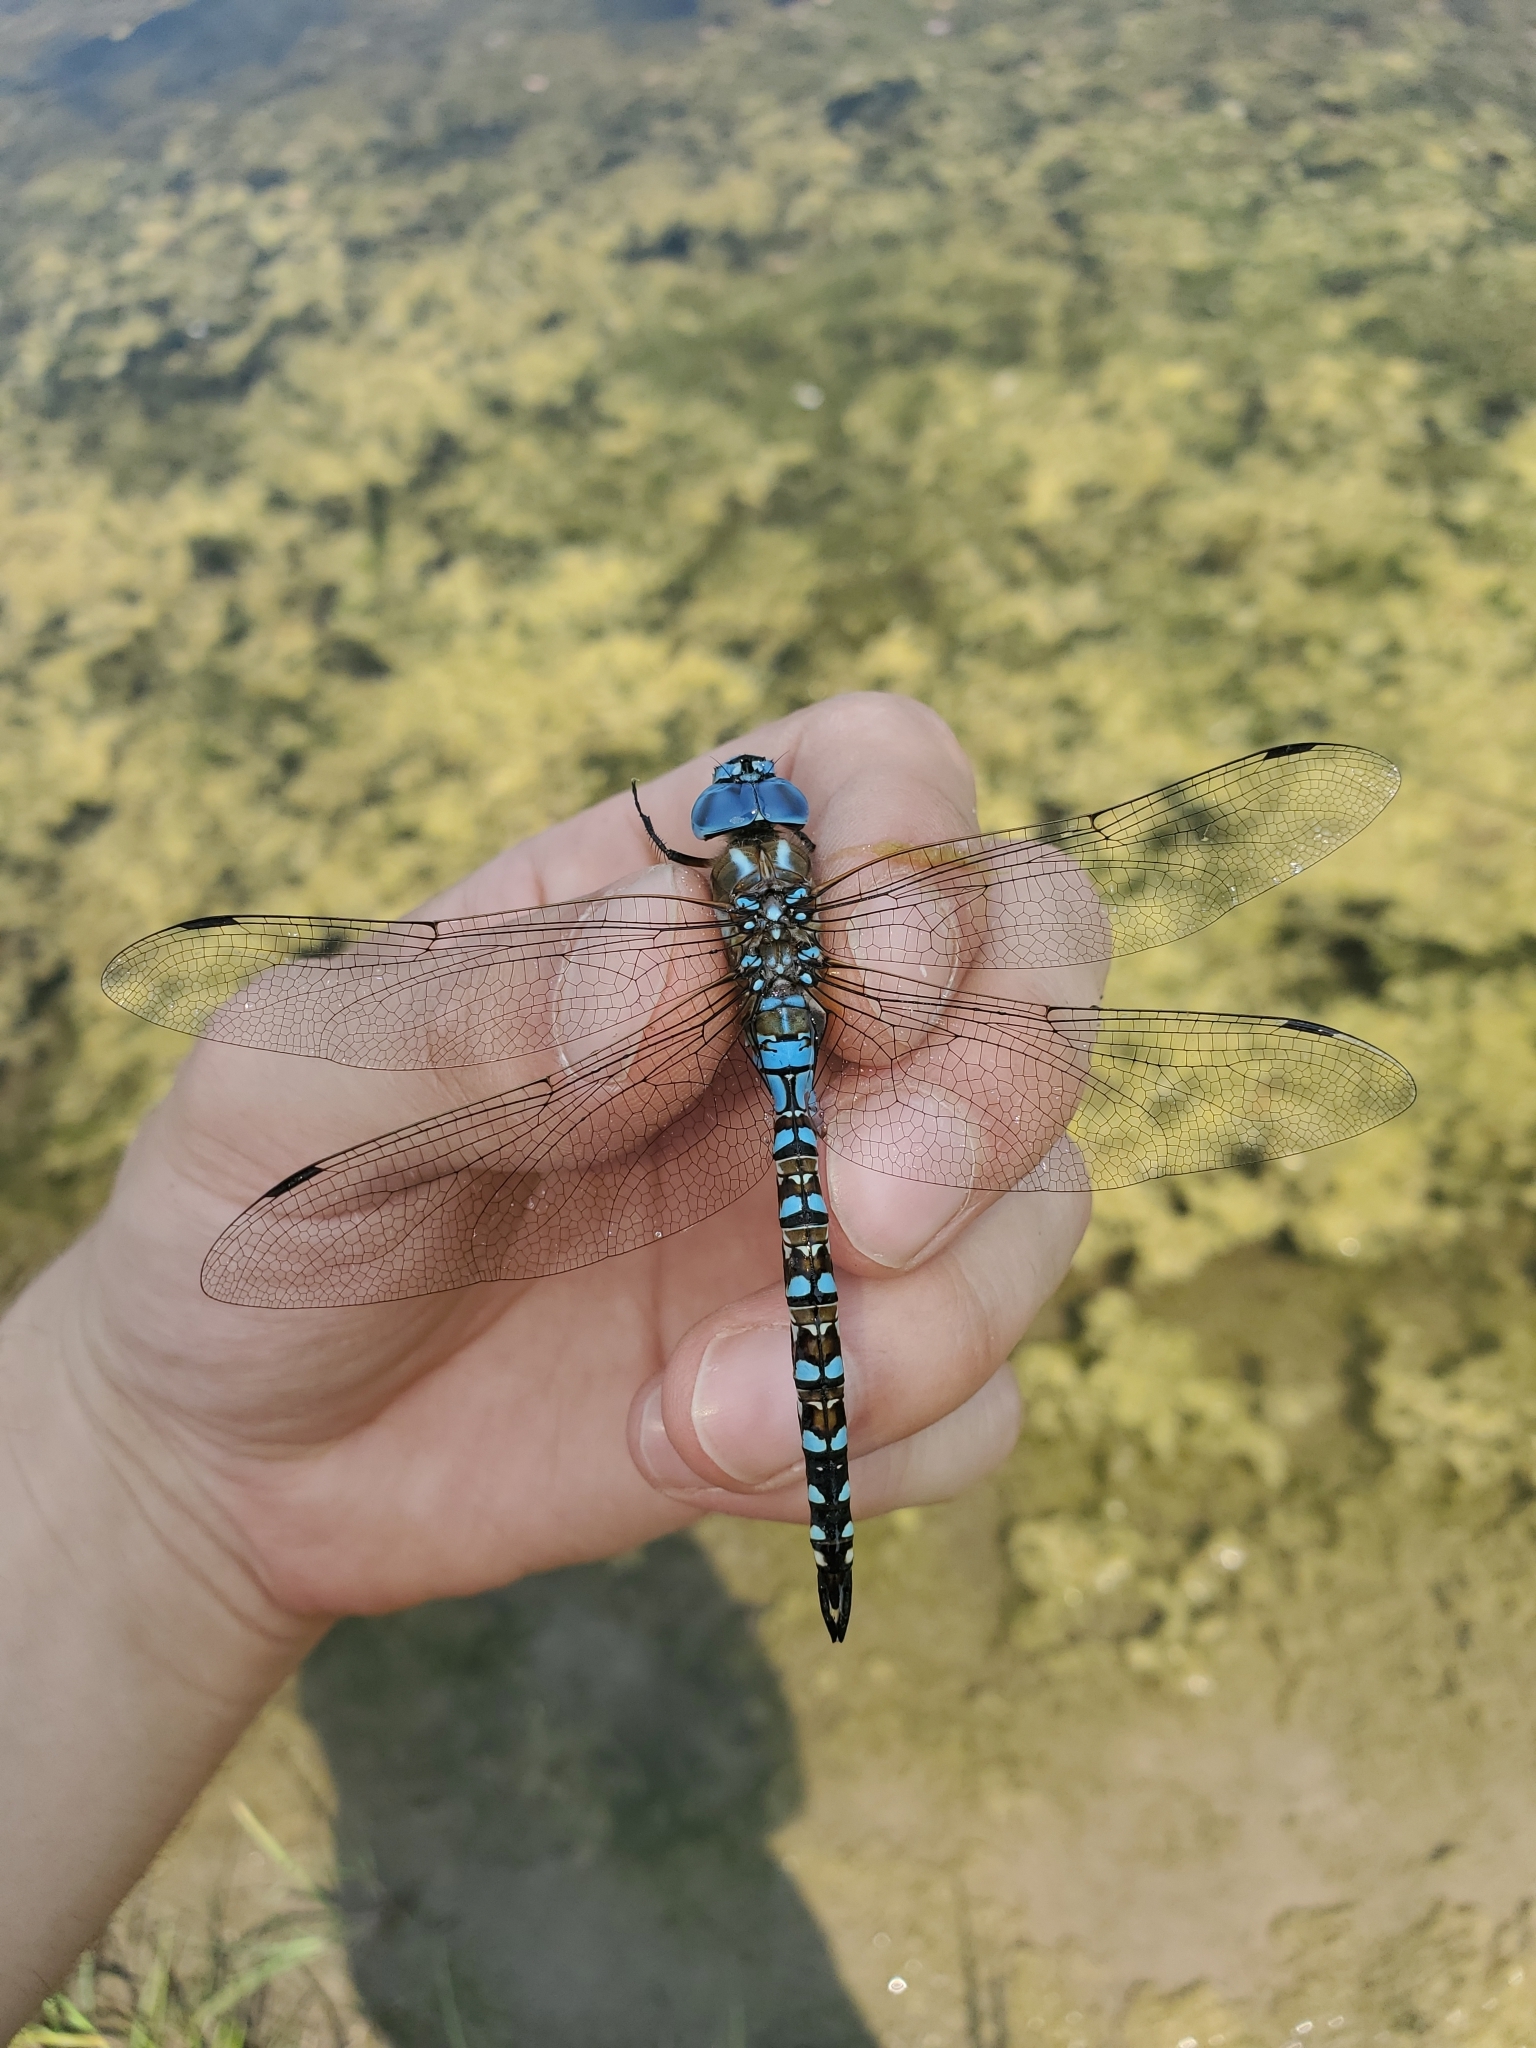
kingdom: Animalia
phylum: Arthropoda
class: Insecta
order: Odonata
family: Aeshnidae
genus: Rhionaeschna
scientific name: Rhionaeschna multicolor
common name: Blue-eyed darner
